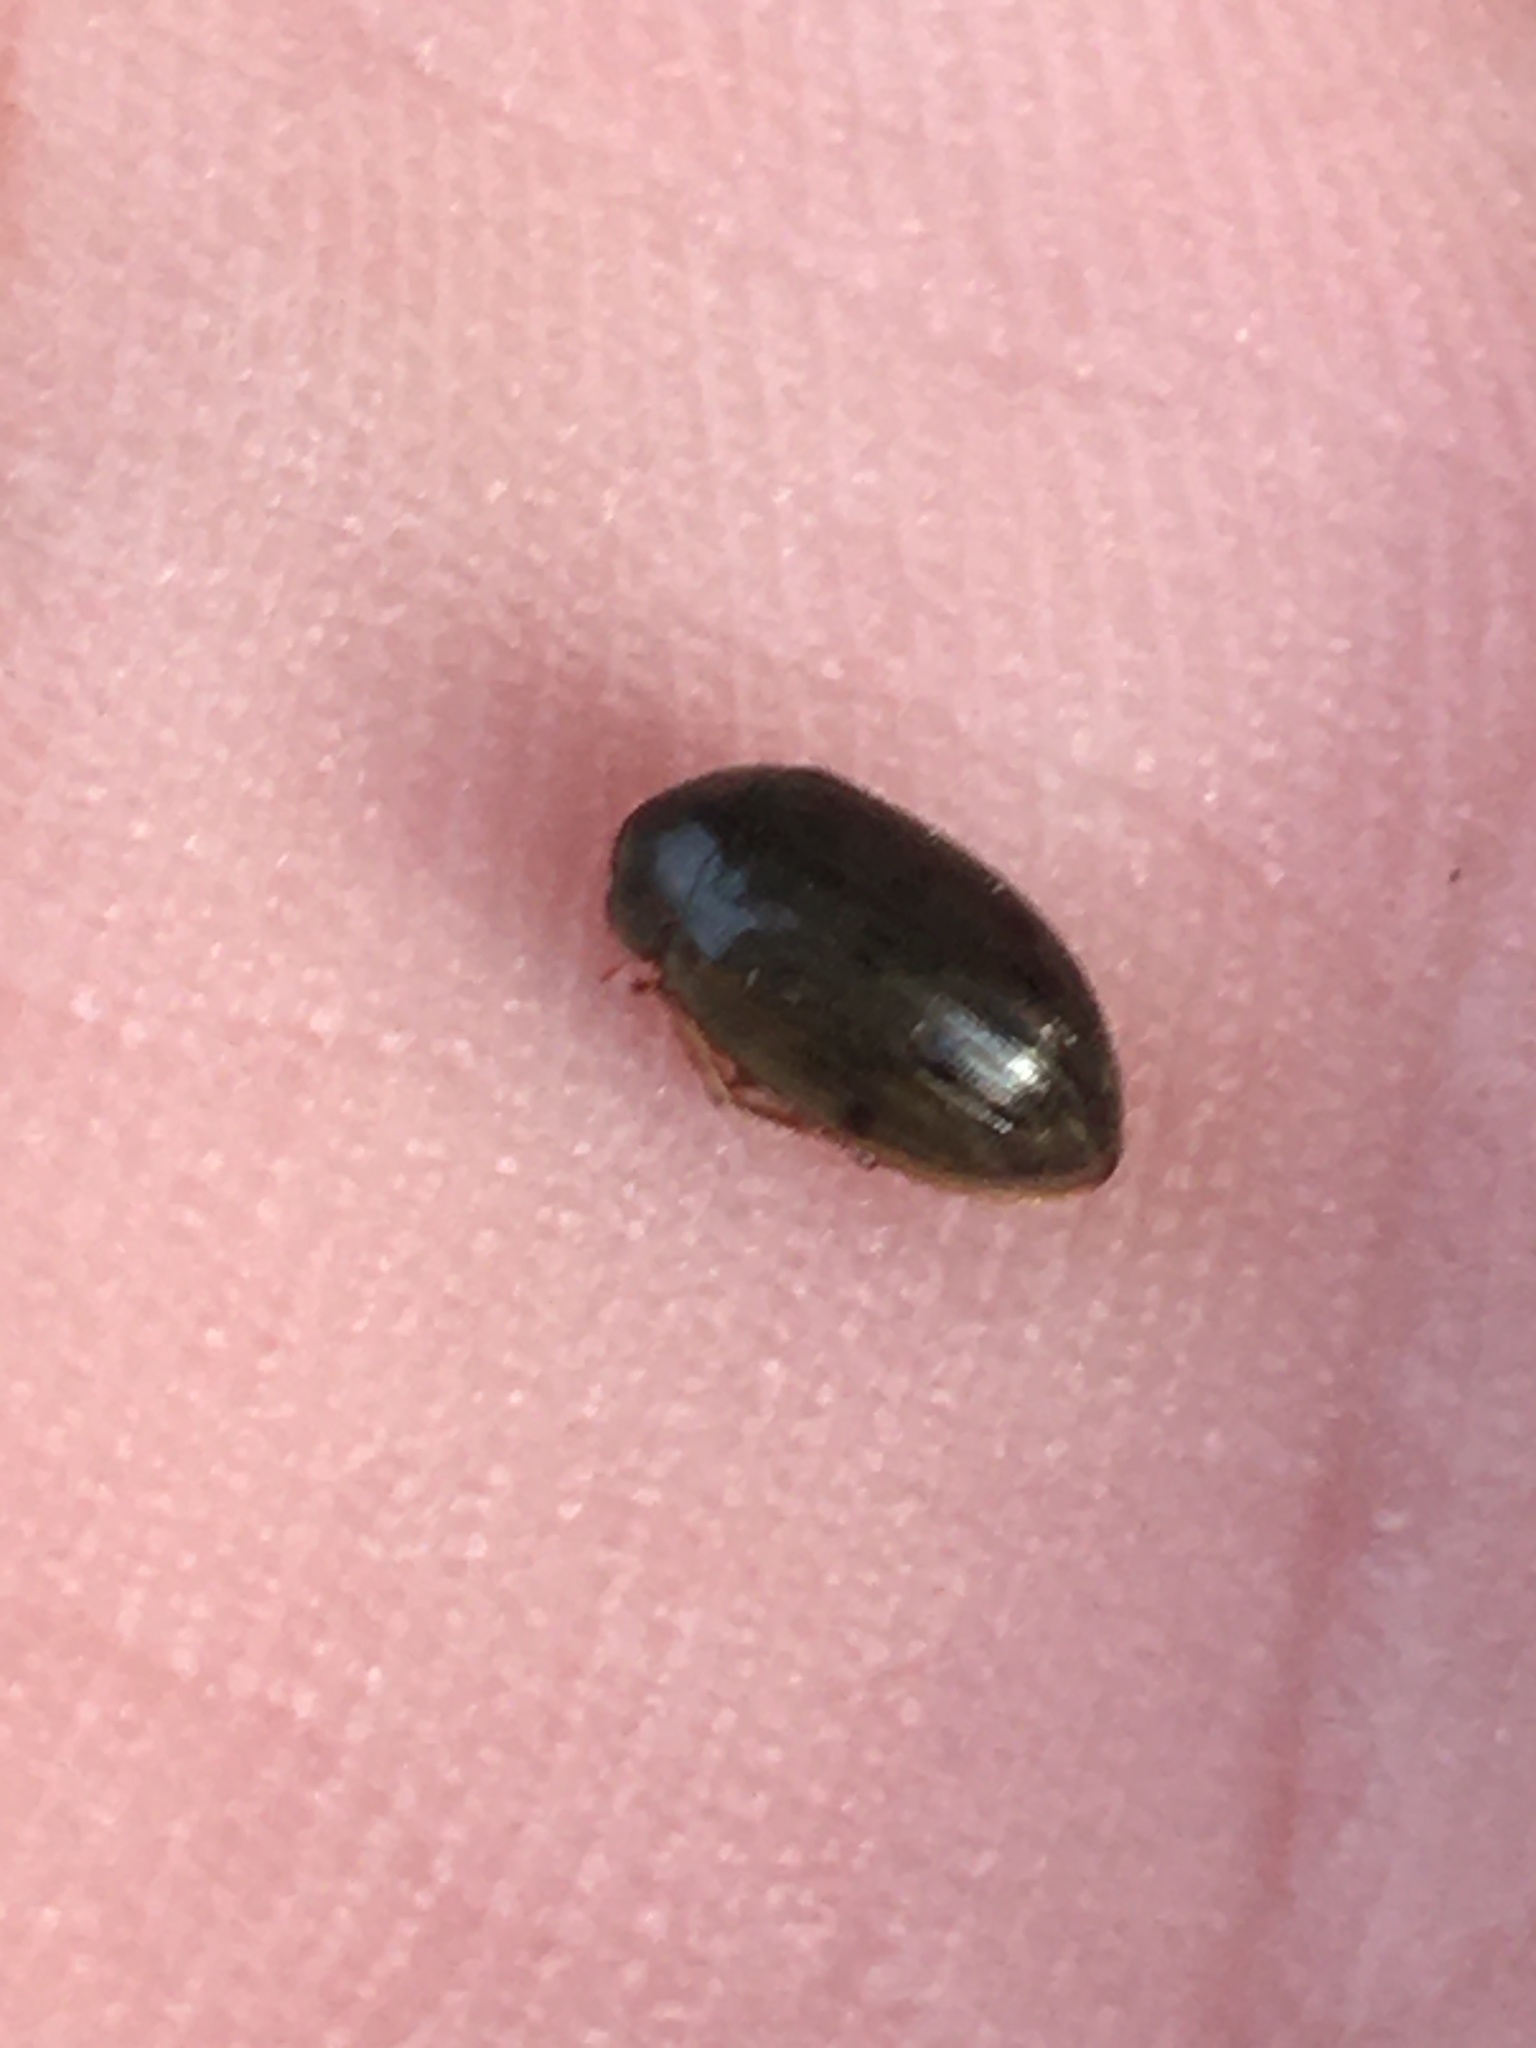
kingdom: Animalia
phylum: Arthropoda
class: Insecta
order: Coleoptera
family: Hydrophilidae
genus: Berosus
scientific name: Berosus
